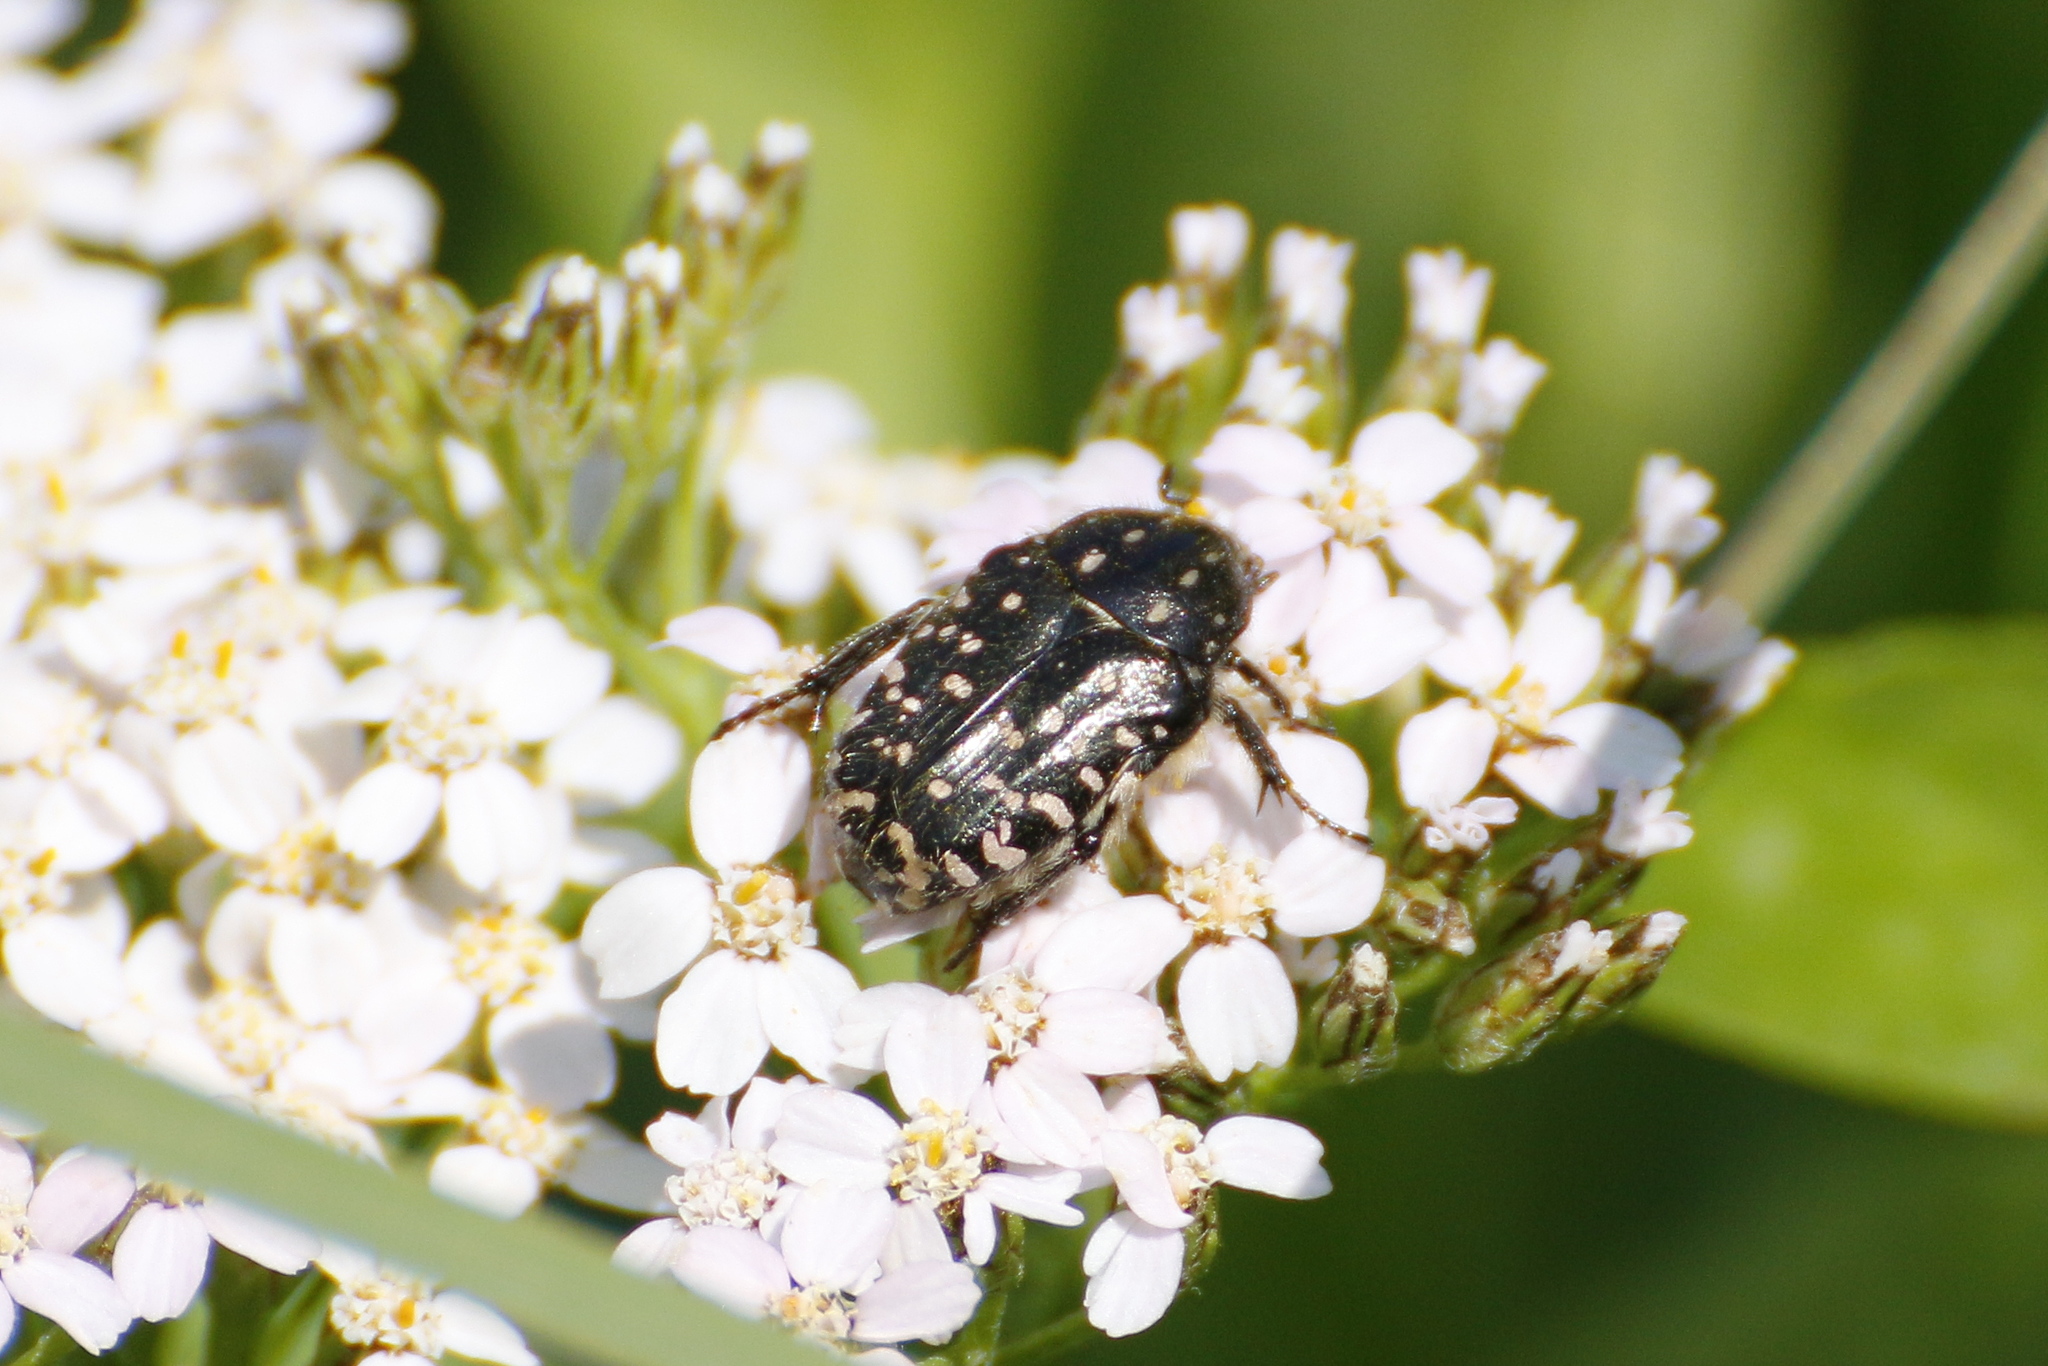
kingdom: Animalia
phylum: Arthropoda
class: Insecta
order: Coleoptera
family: Scarabaeidae
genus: Oxythyrea
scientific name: Oxythyrea funesta
